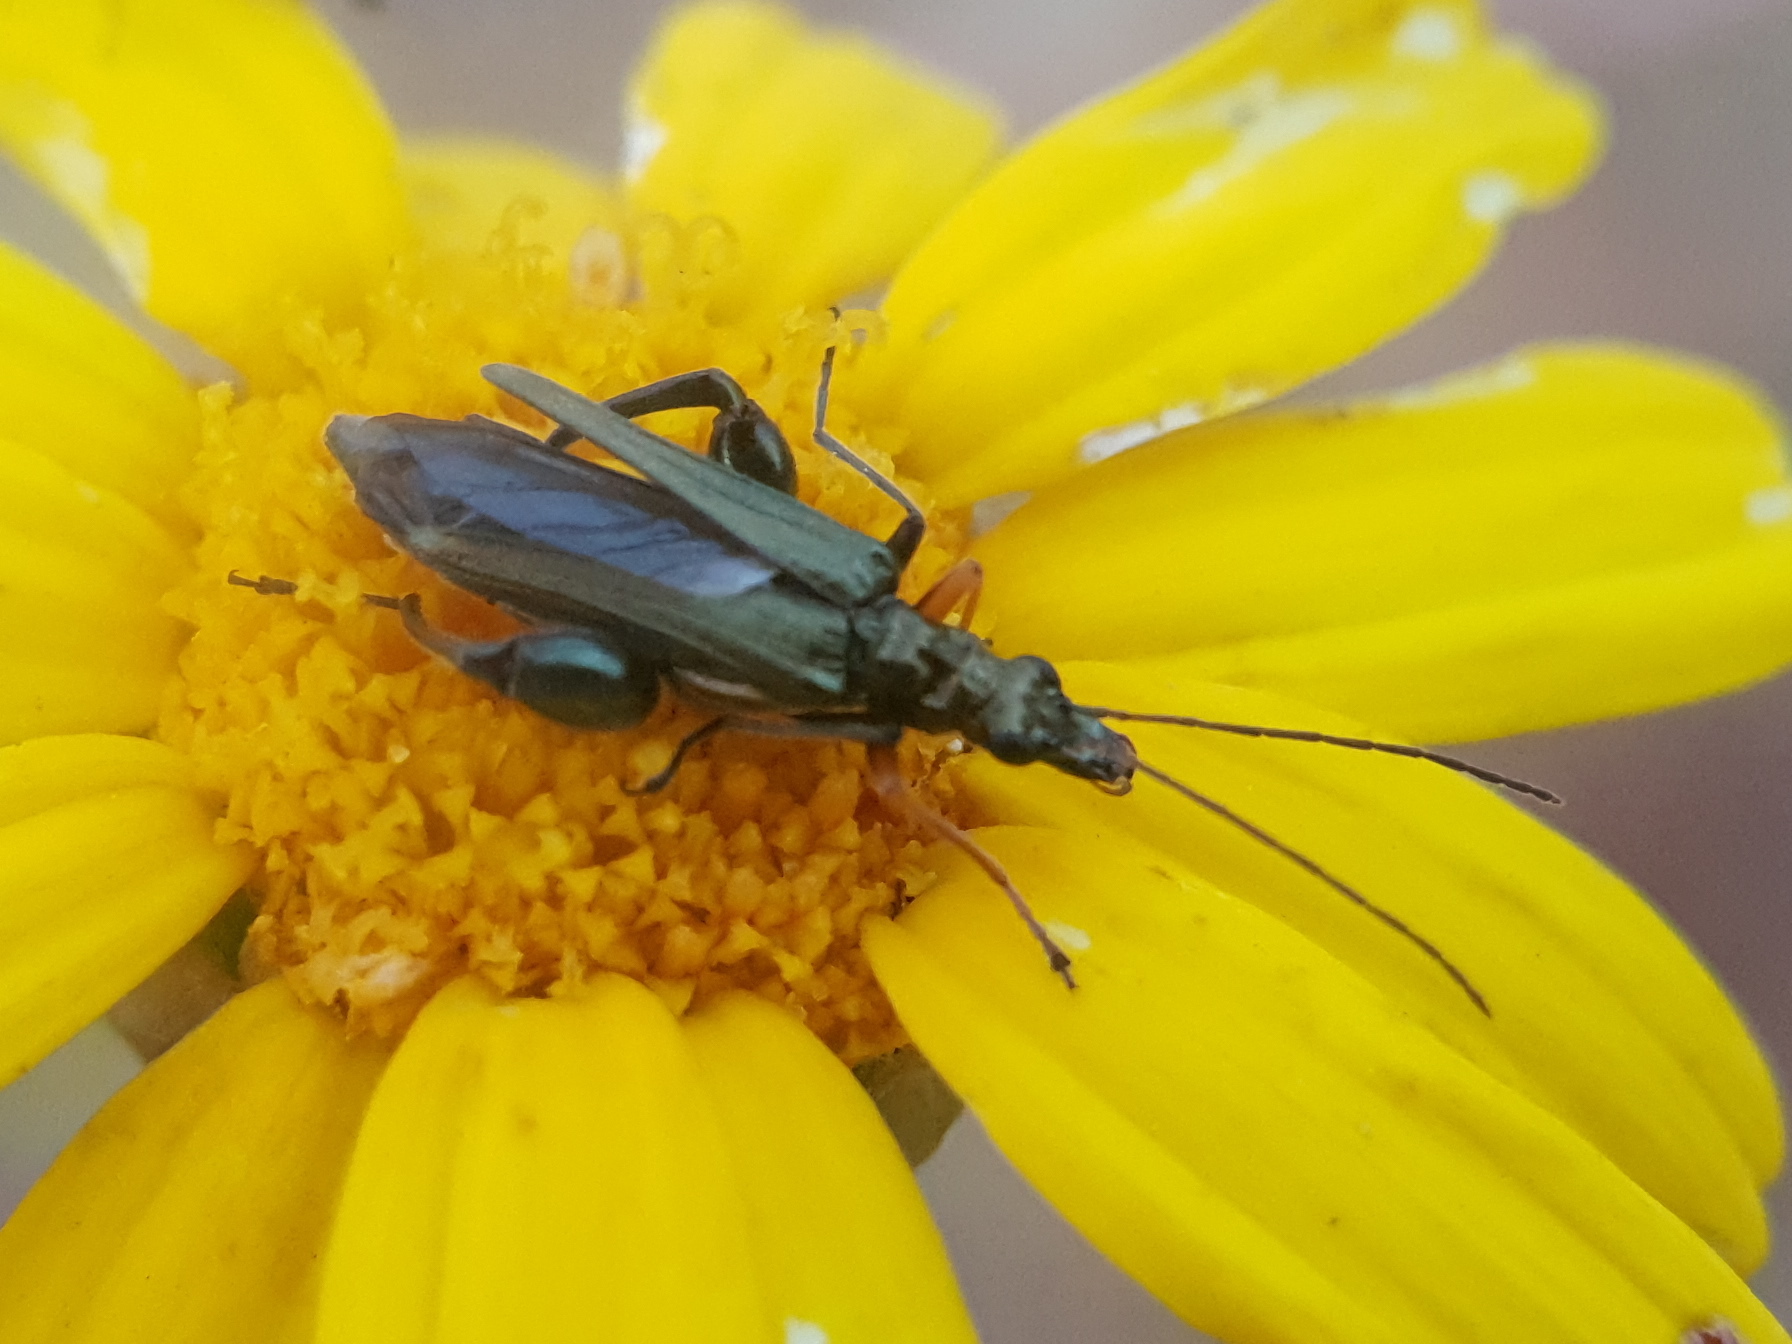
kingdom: Animalia
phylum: Arthropoda
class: Insecta
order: Coleoptera
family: Oedemeridae
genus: Oedemera
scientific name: Oedemera flavipes
